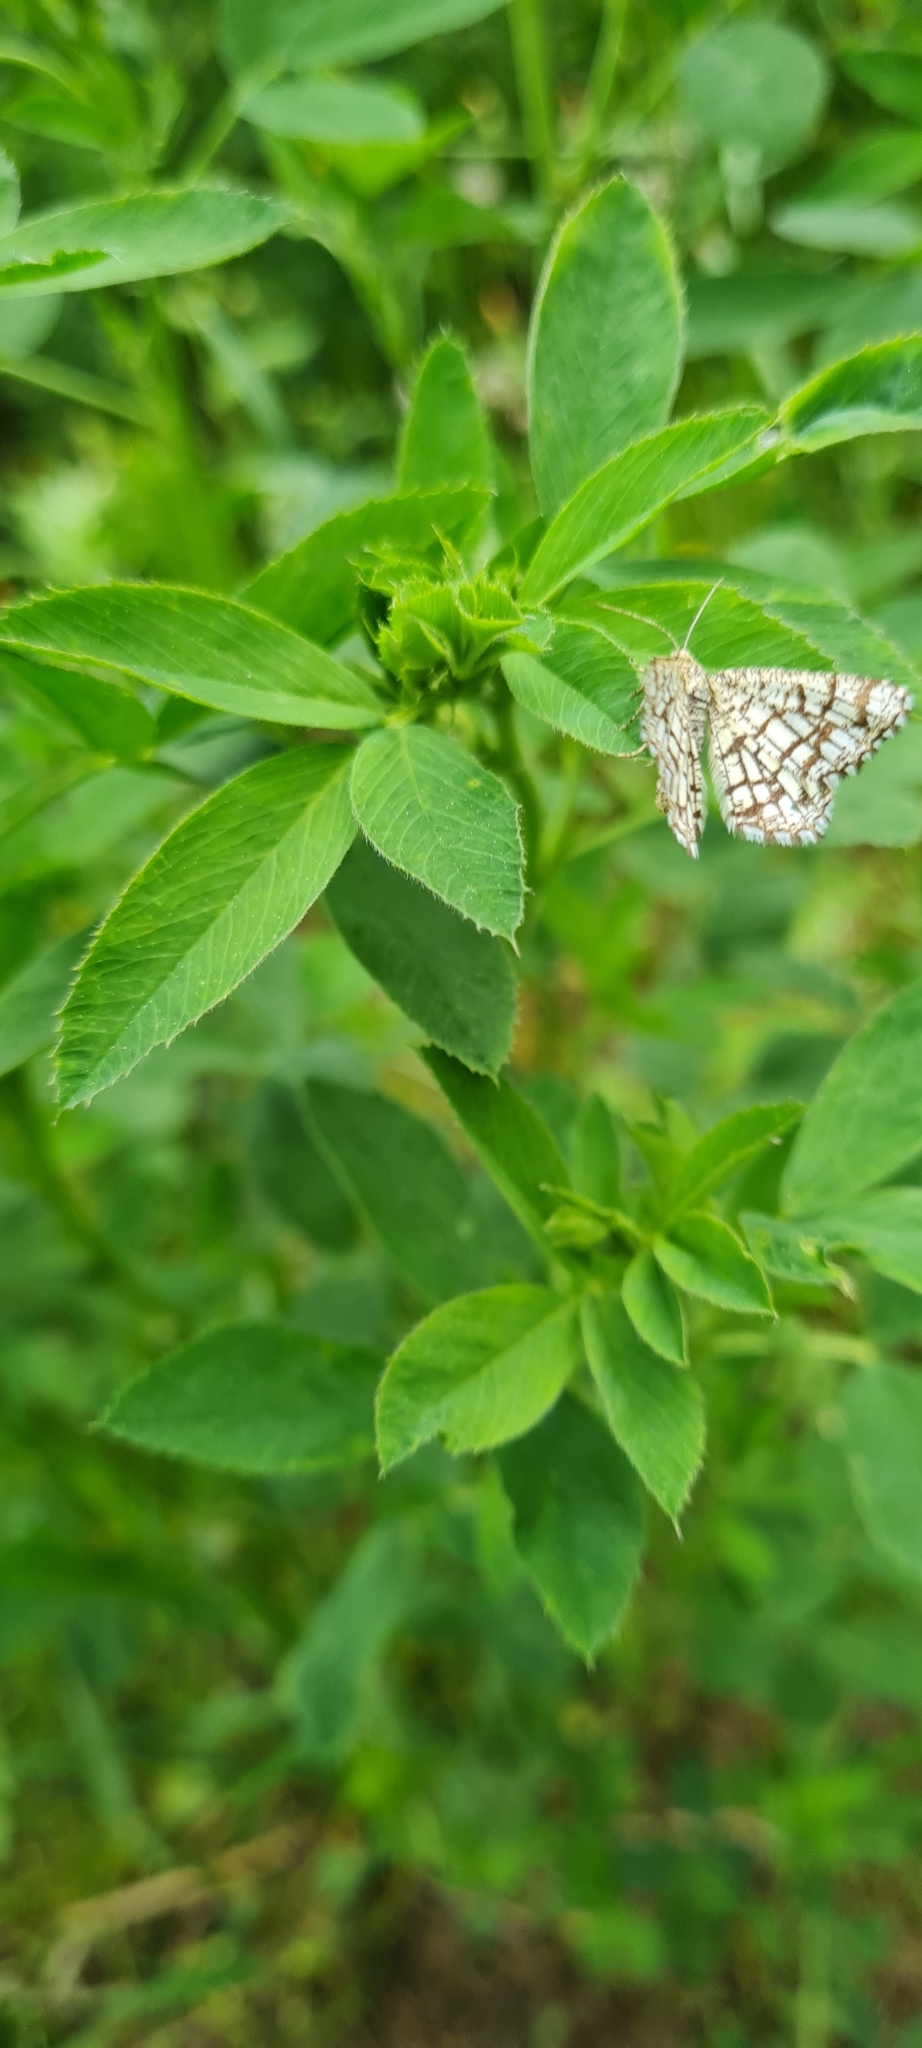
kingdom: Animalia
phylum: Arthropoda
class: Insecta
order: Lepidoptera
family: Geometridae
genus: Chiasmia
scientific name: Chiasmia clathrata
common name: Latticed heath
